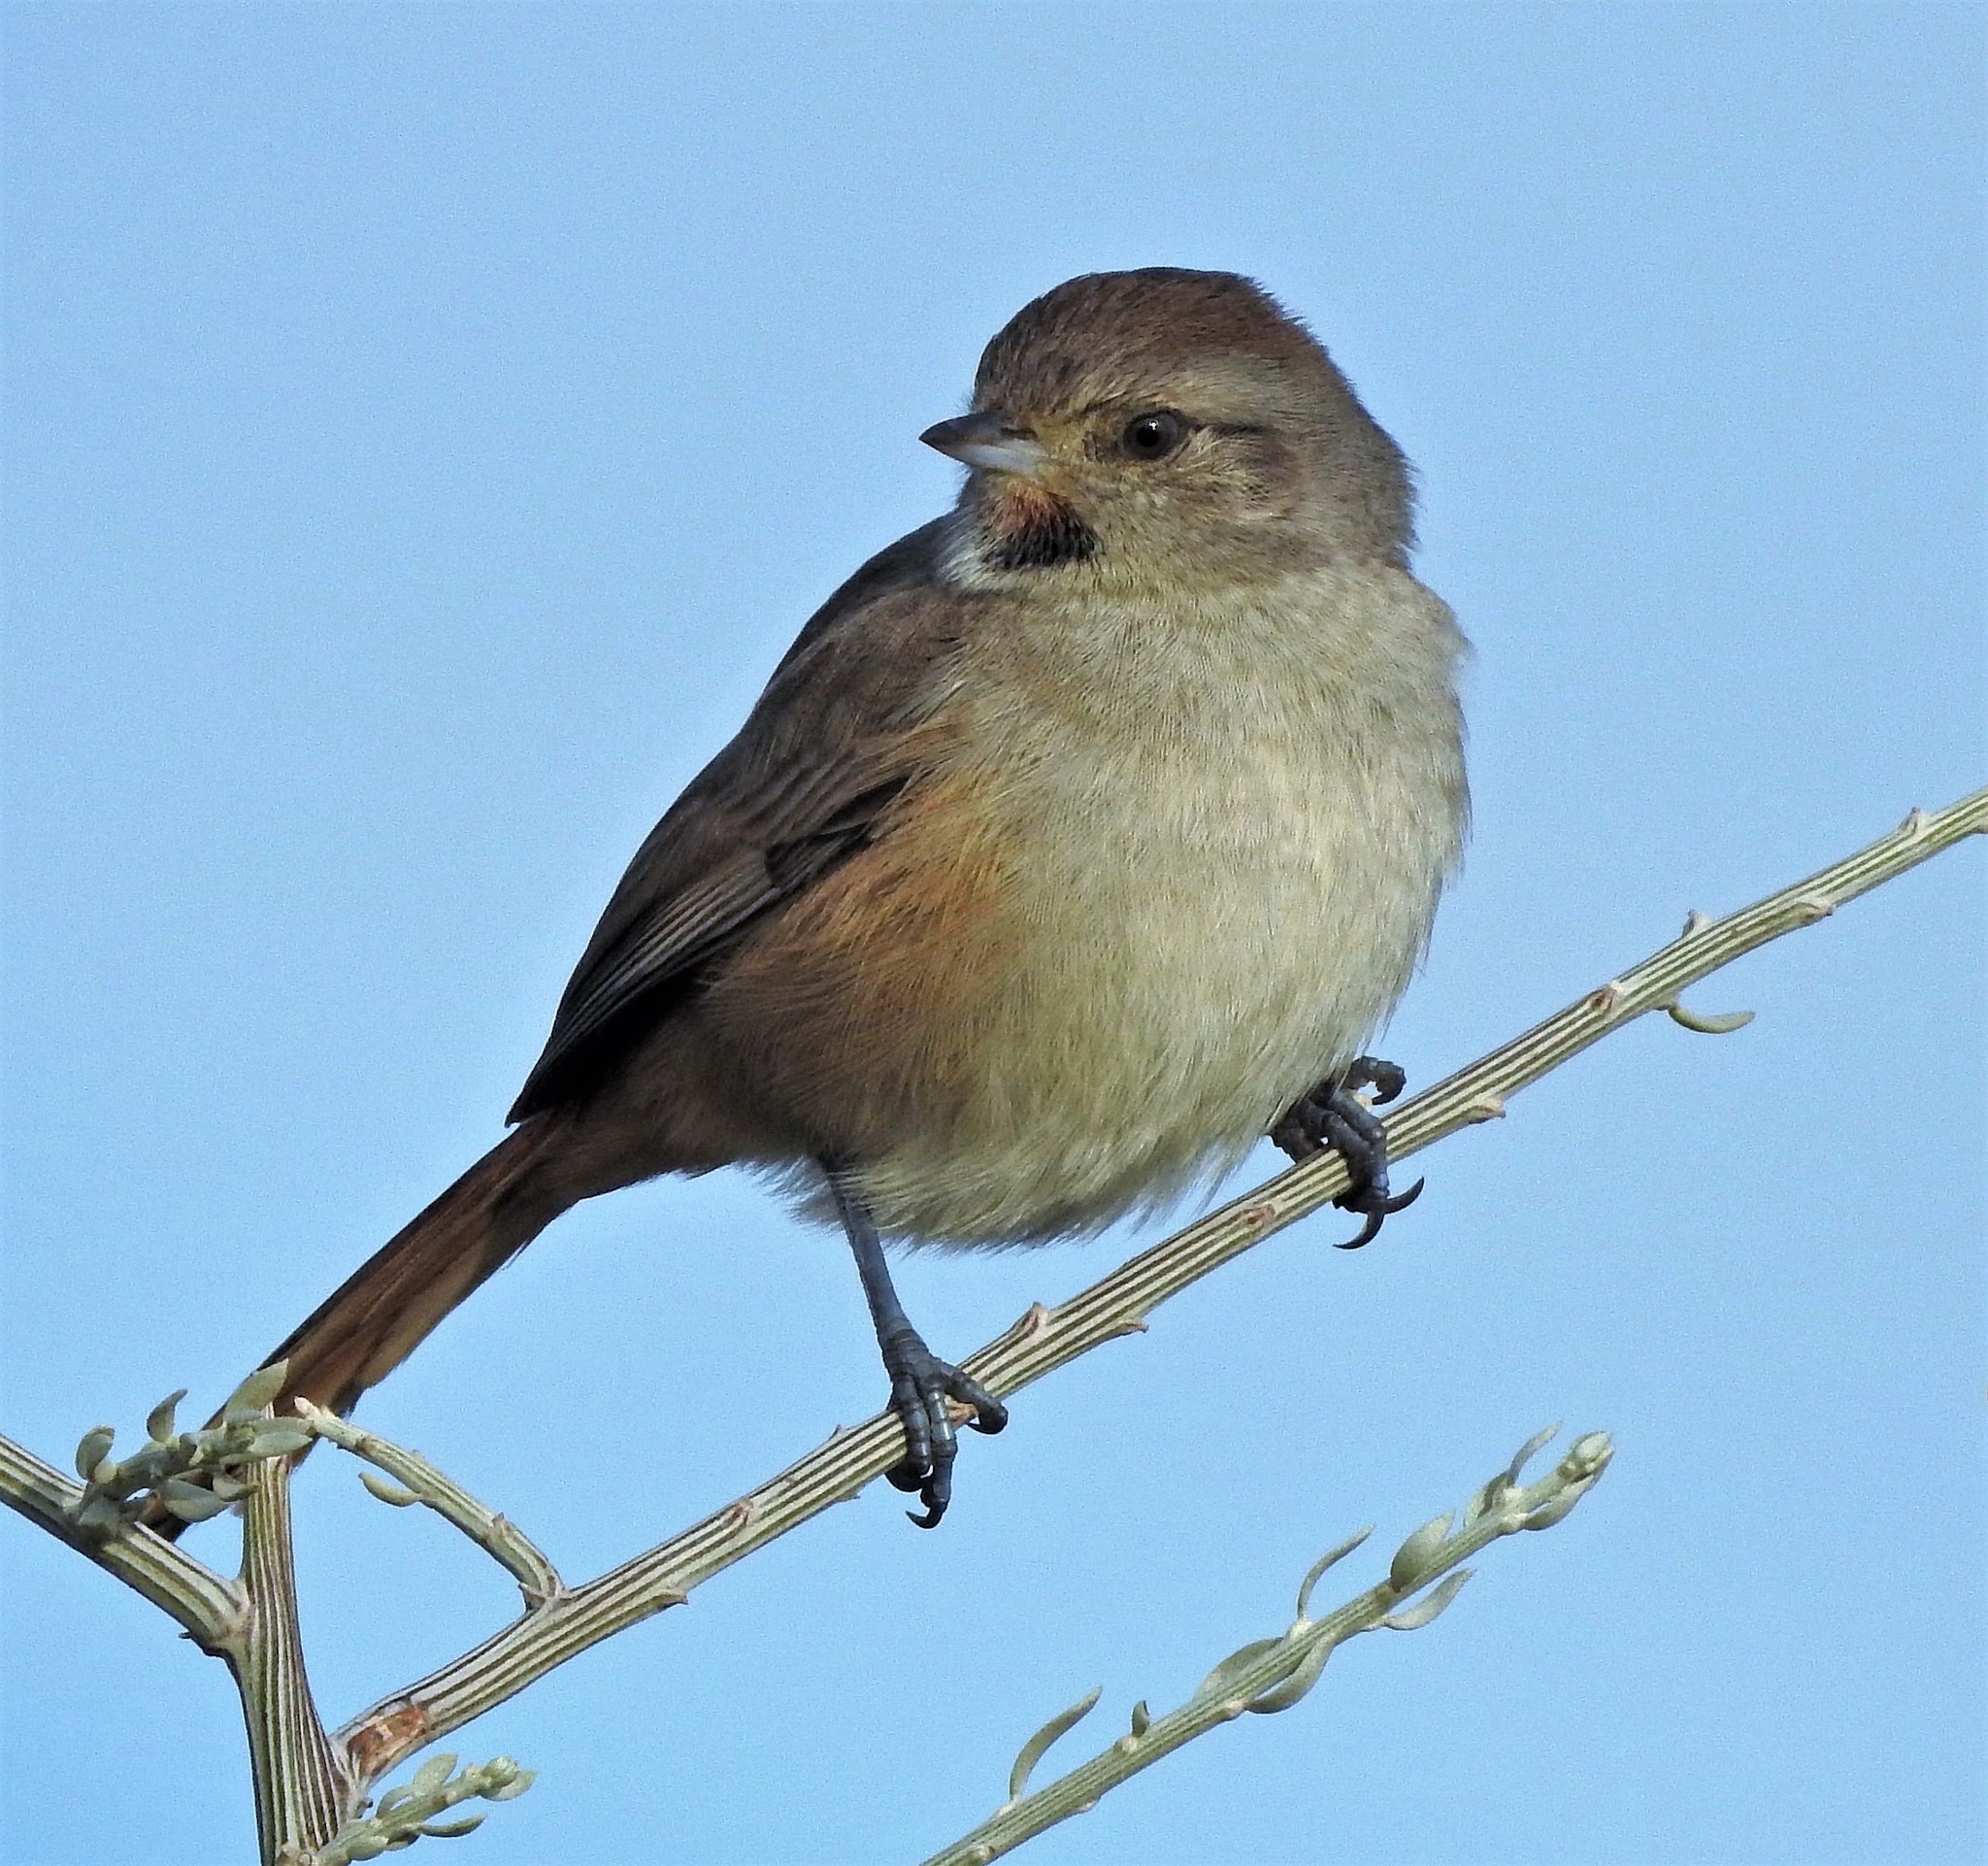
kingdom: Animalia
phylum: Chordata
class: Aves
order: Passeriformes
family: Furnariidae
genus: Asthenes
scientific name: Asthenes baeri
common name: Short-billed canastero
